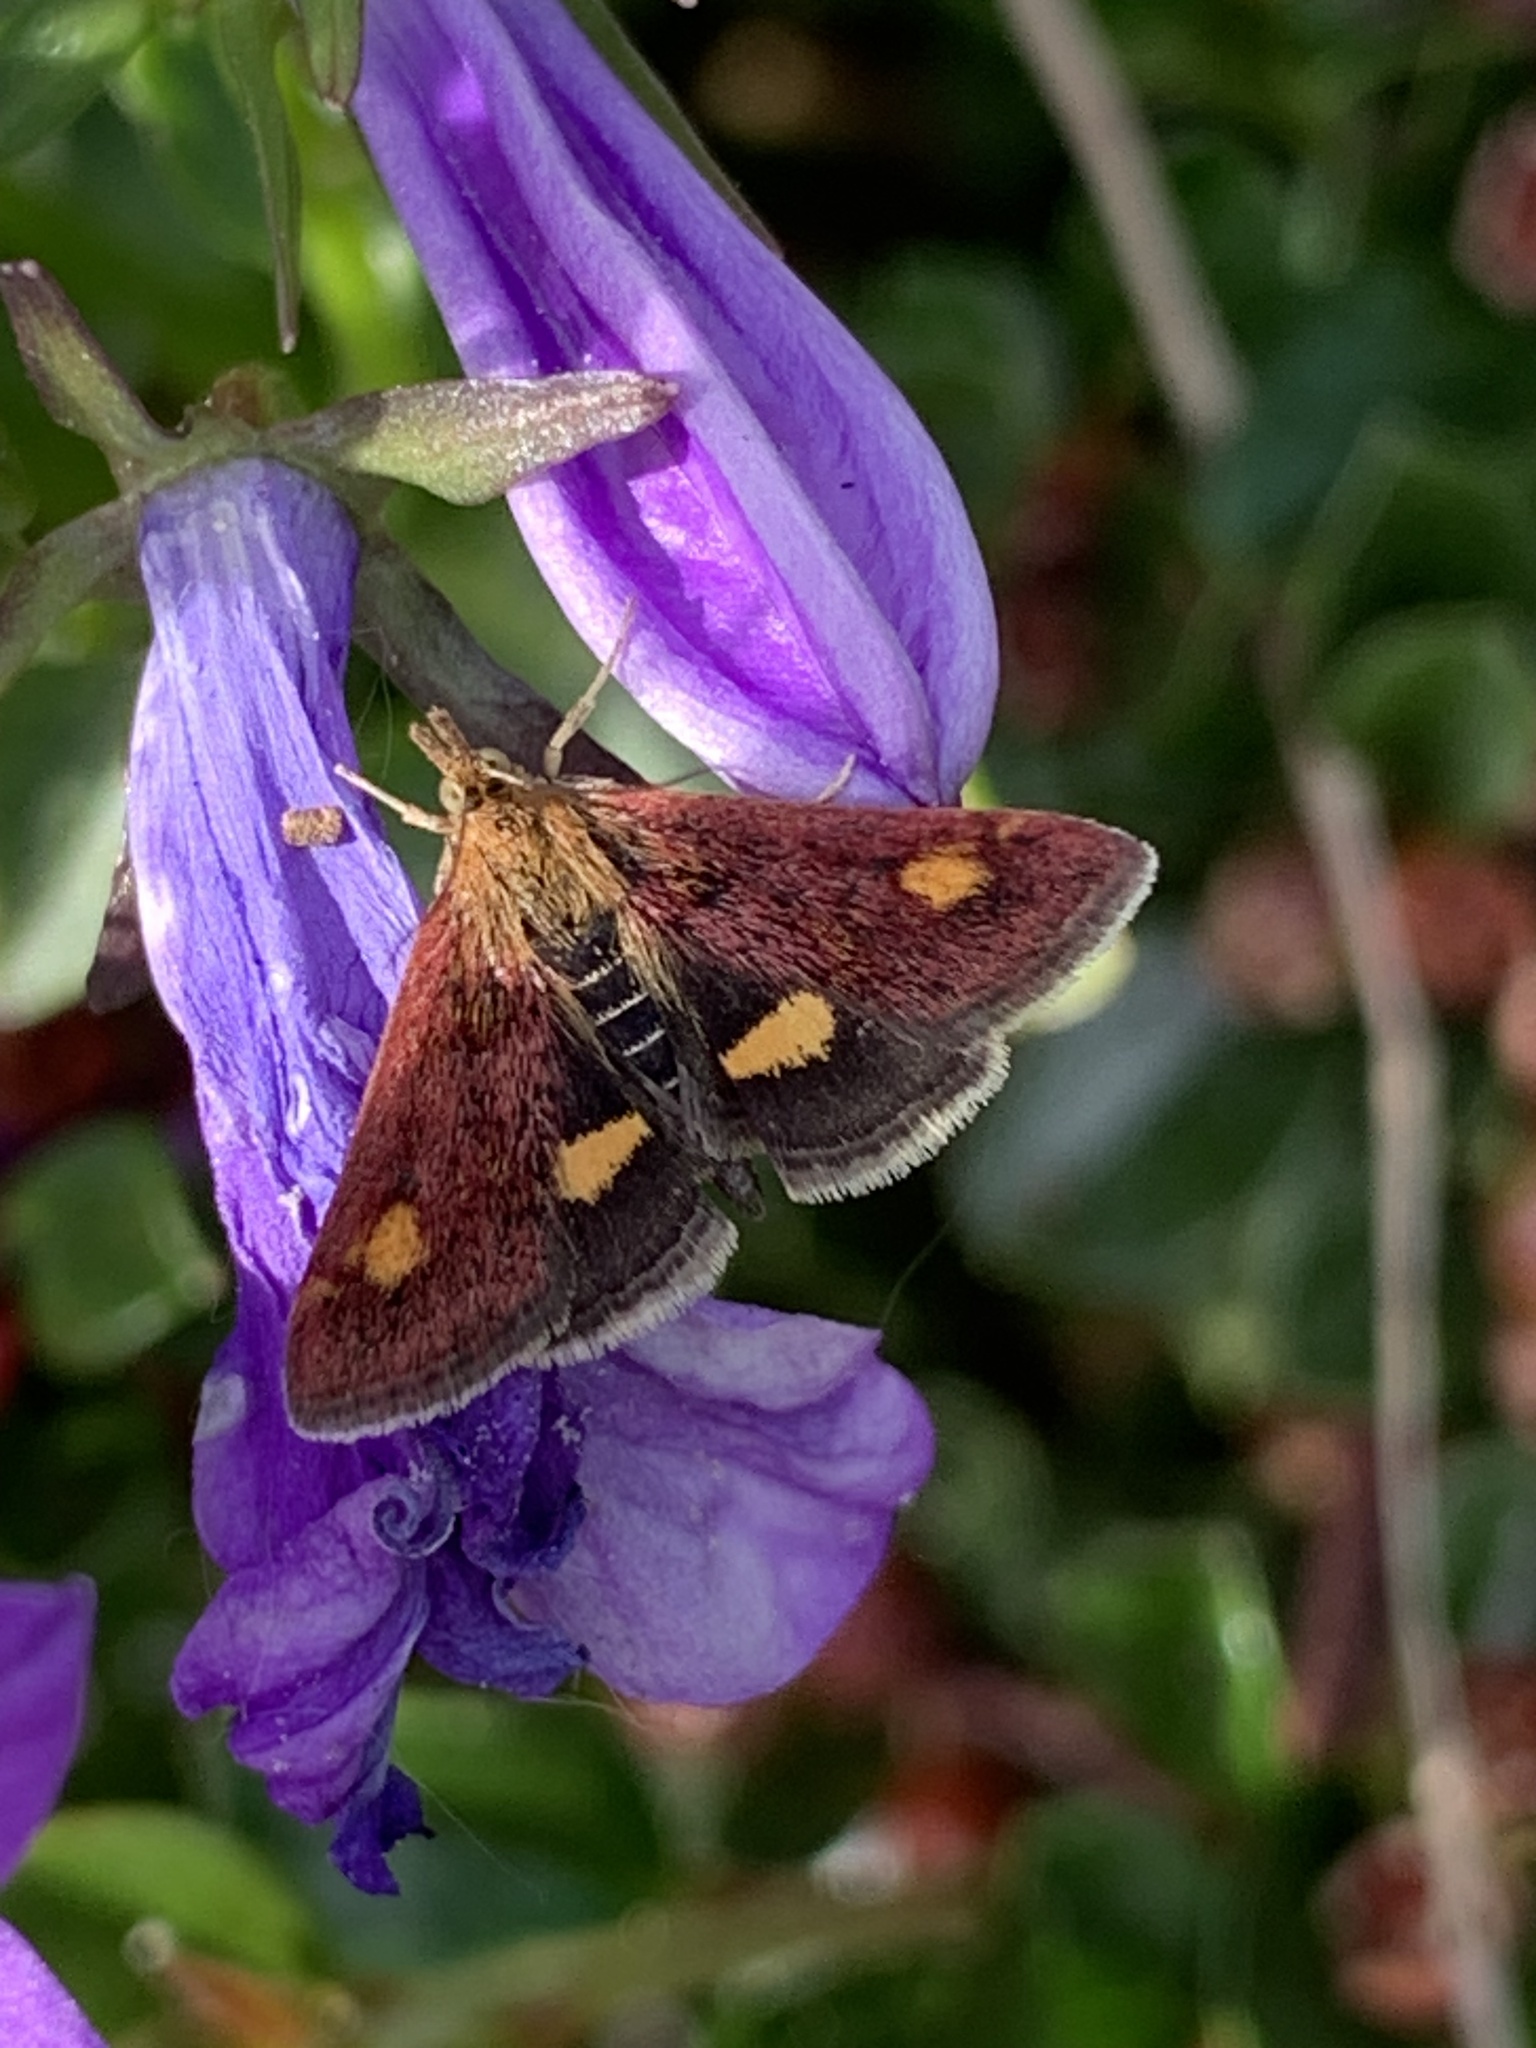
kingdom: Animalia
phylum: Arthropoda
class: Insecta
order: Lepidoptera
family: Crambidae
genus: Pyrausta
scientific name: Pyrausta aurata
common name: Small purple & gold
